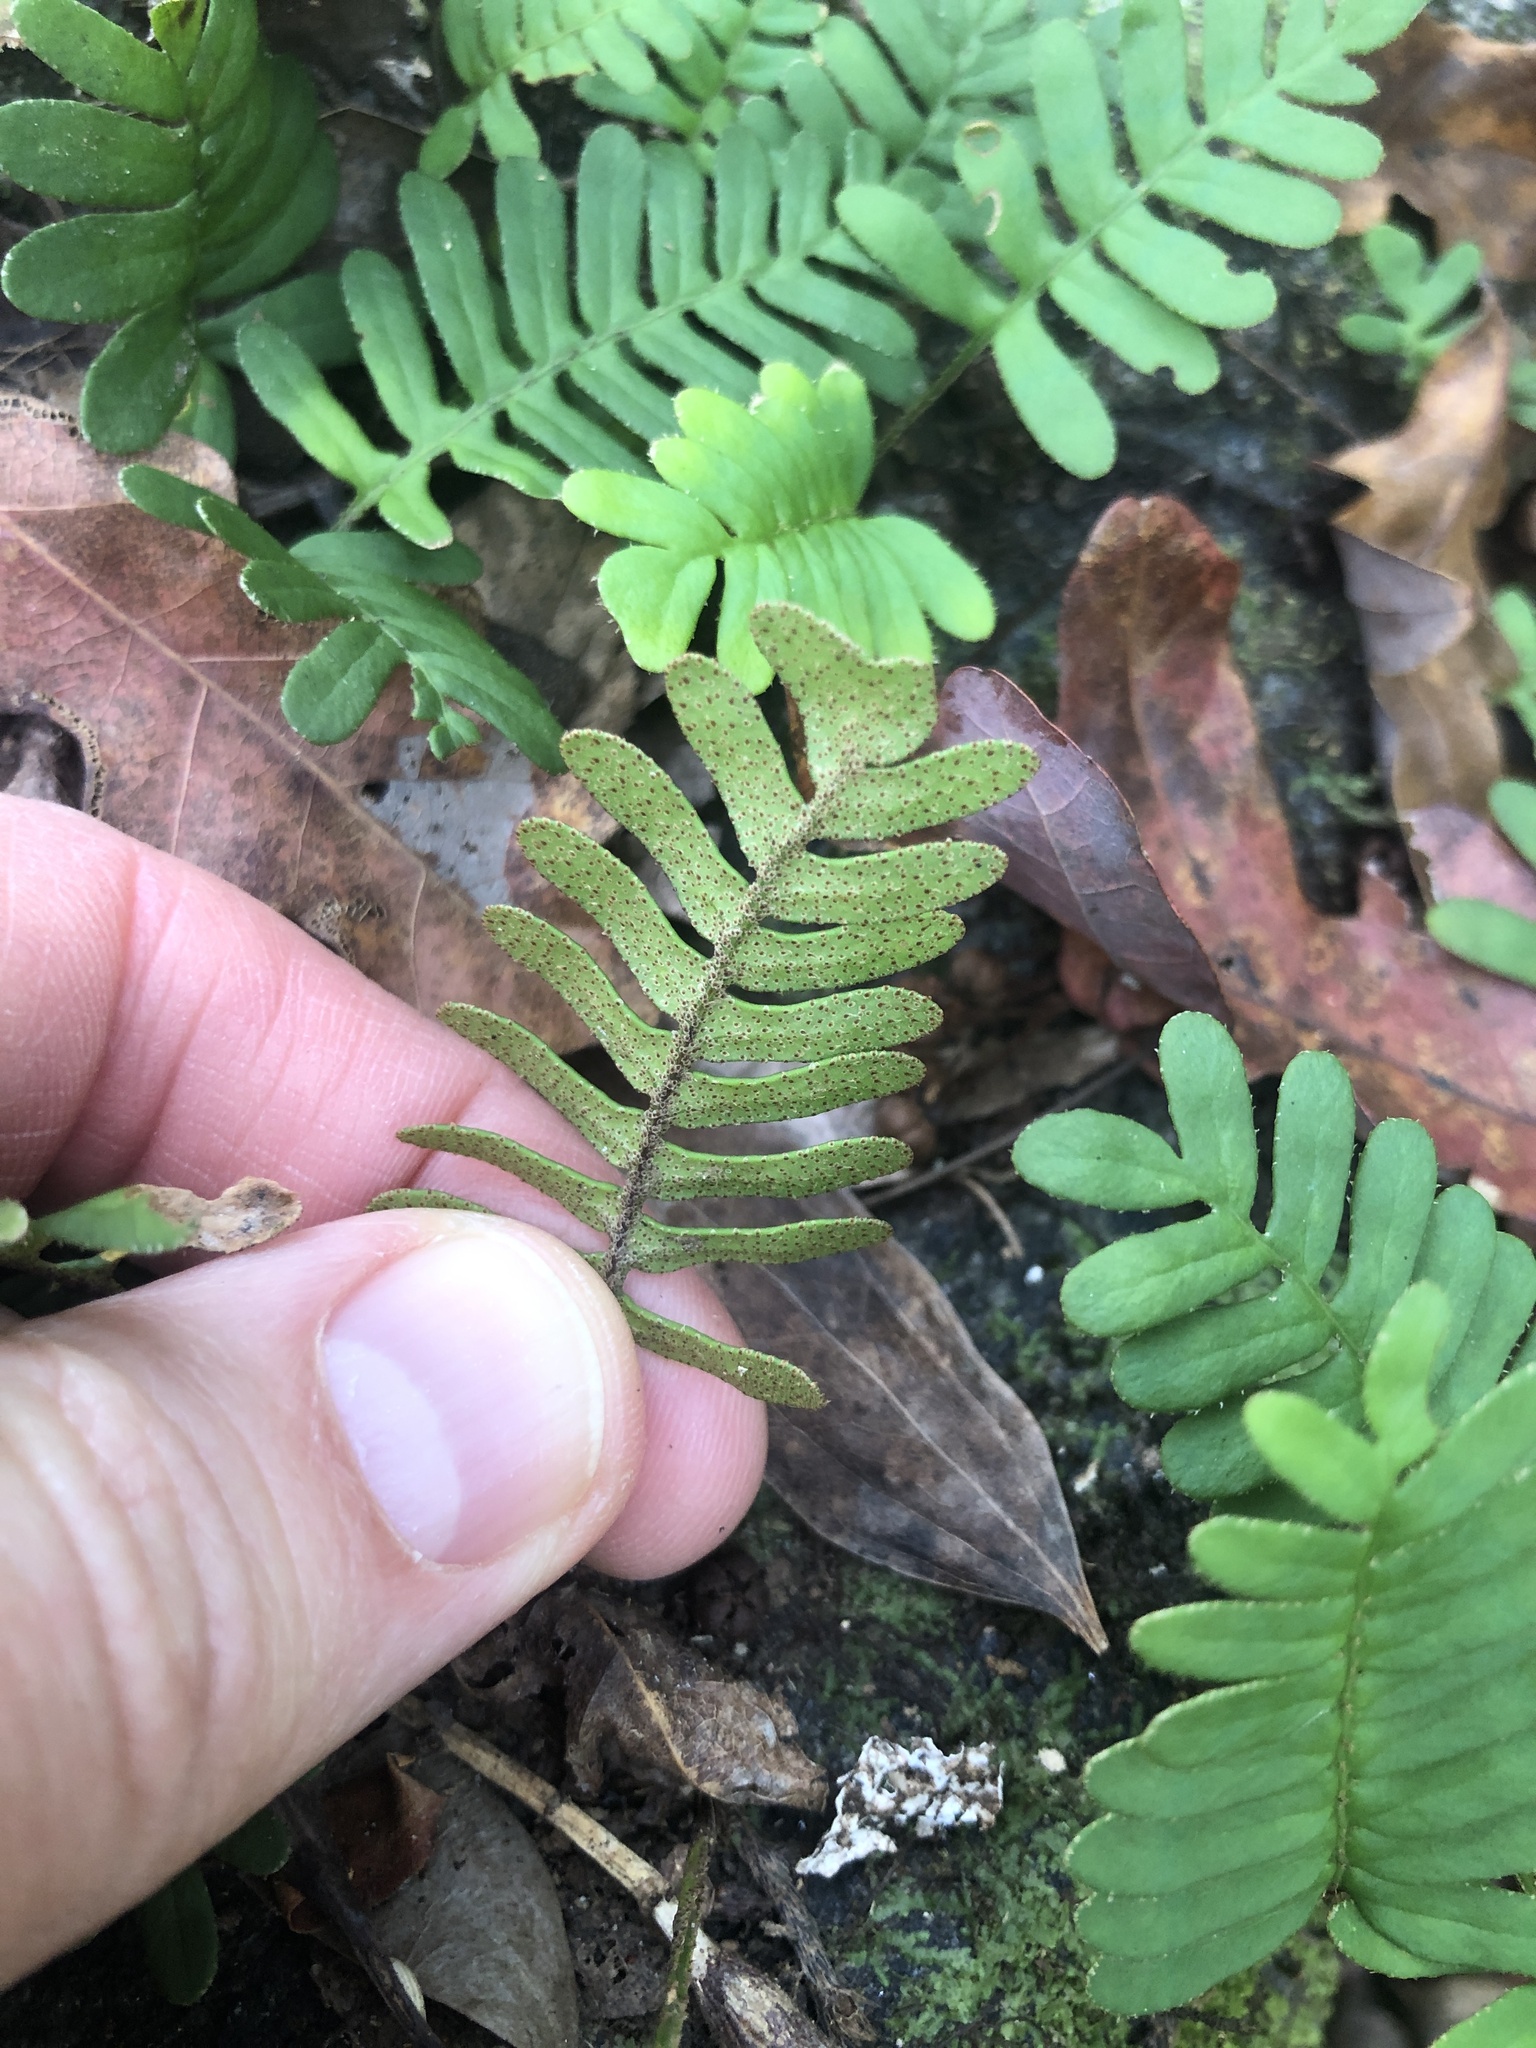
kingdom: Plantae
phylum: Tracheophyta
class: Polypodiopsida
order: Polypodiales
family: Polypodiaceae
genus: Pleopeltis
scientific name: Pleopeltis michauxiana
